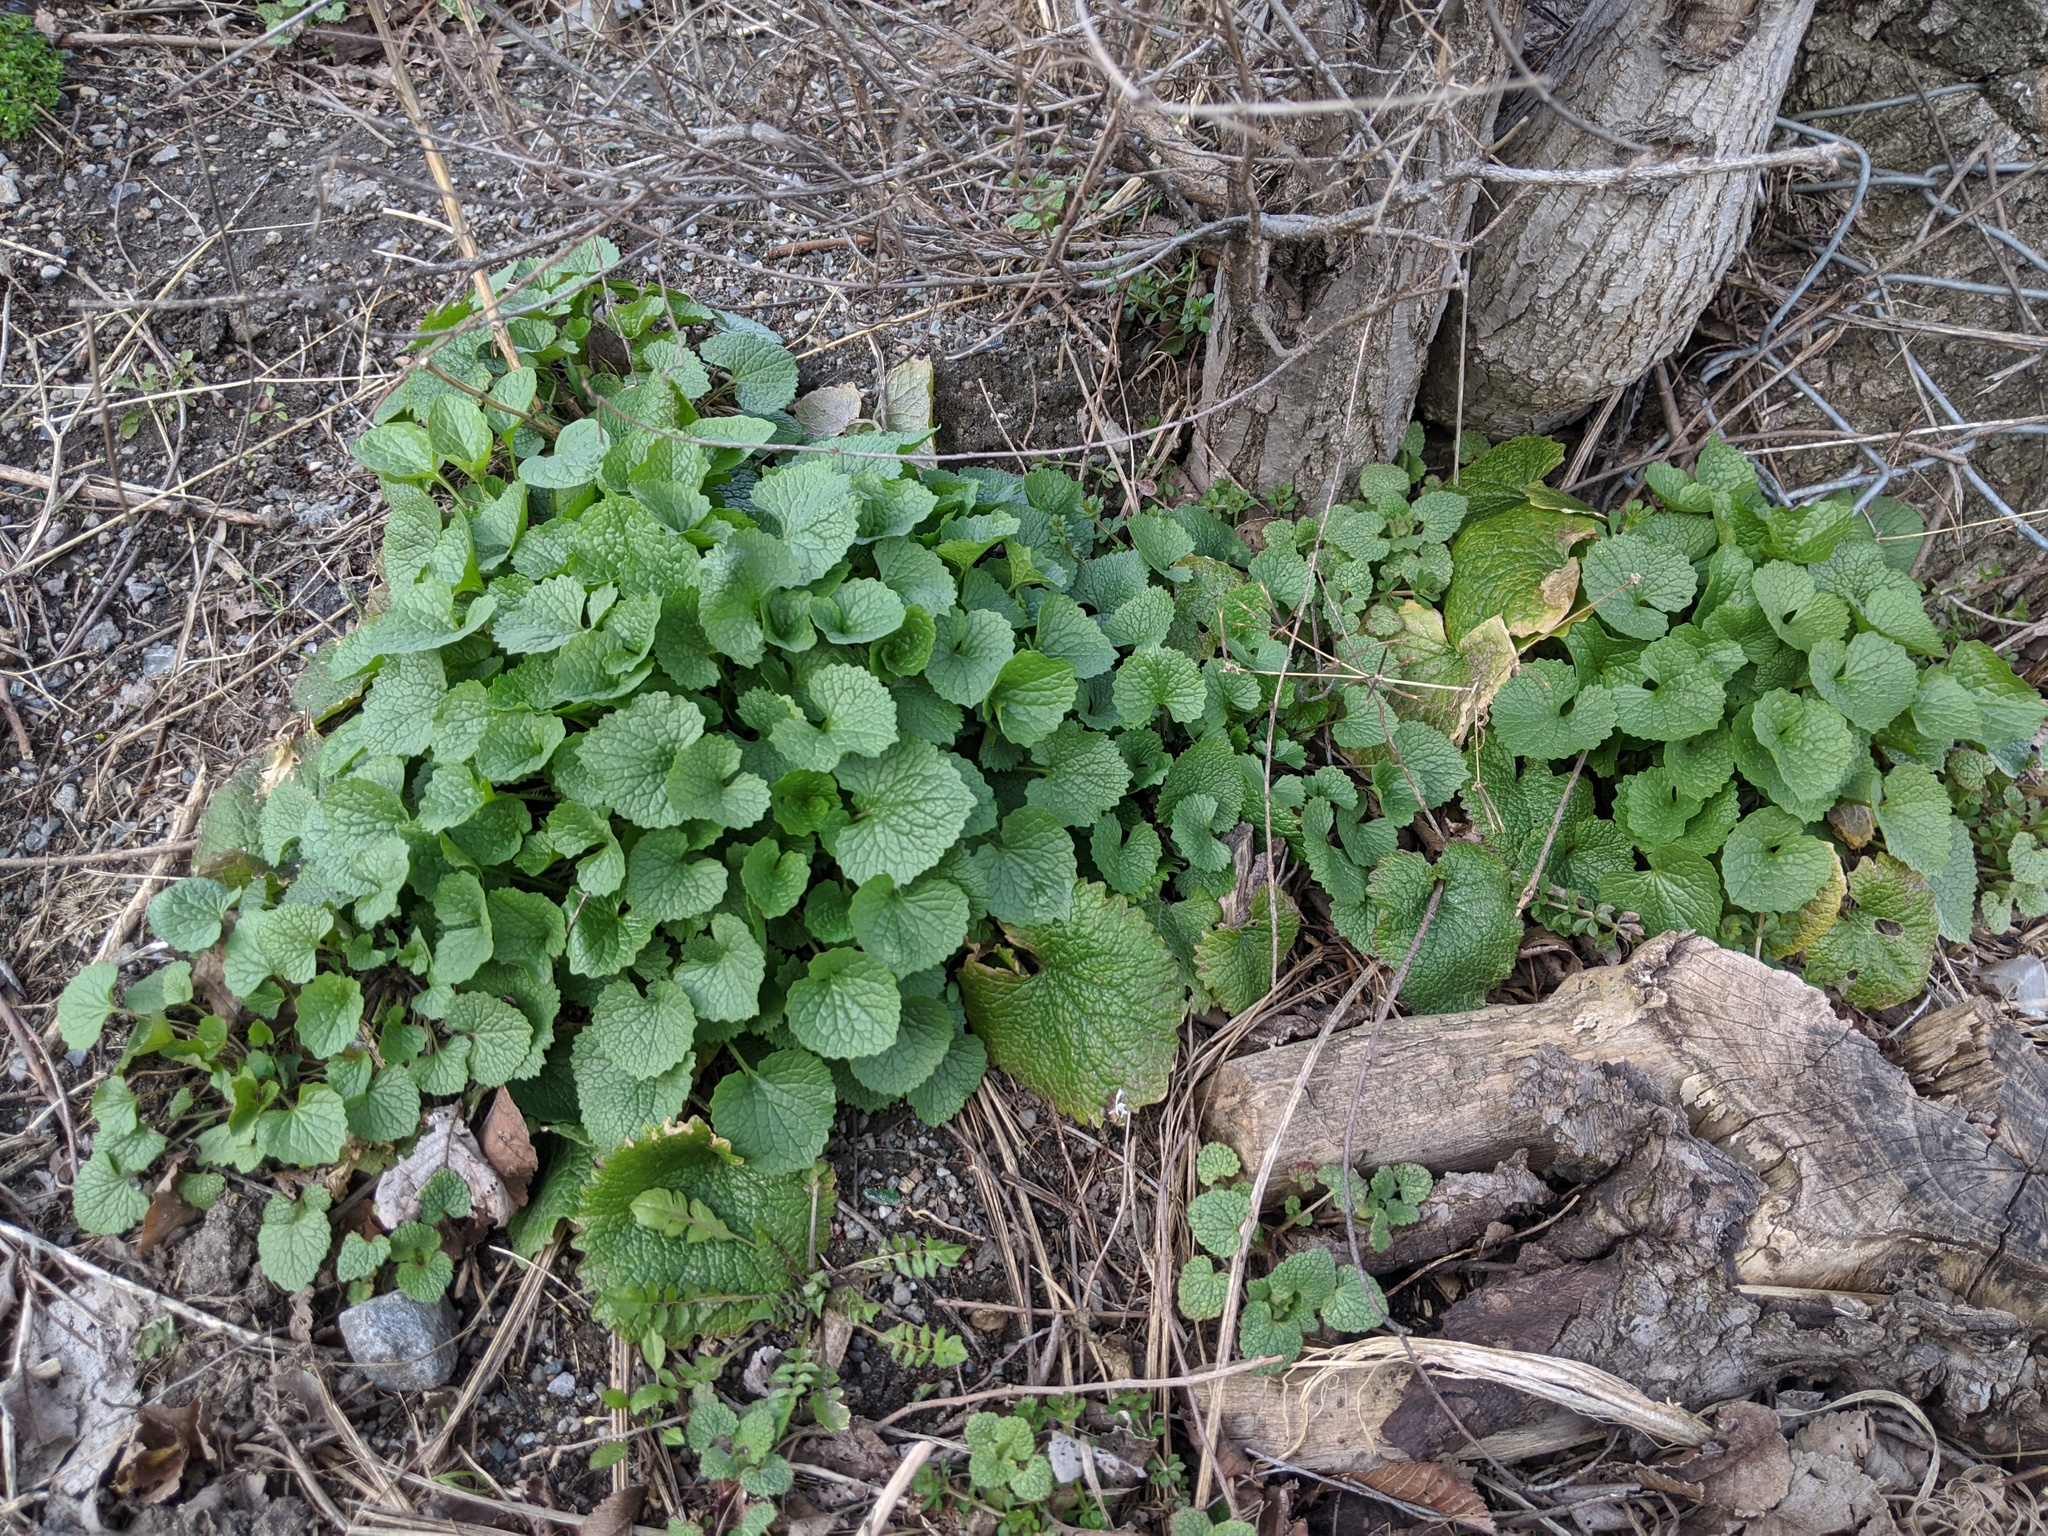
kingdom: Plantae
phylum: Tracheophyta
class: Magnoliopsida
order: Brassicales
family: Brassicaceae
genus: Alliaria
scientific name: Alliaria petiolata
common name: Garlic mustard
